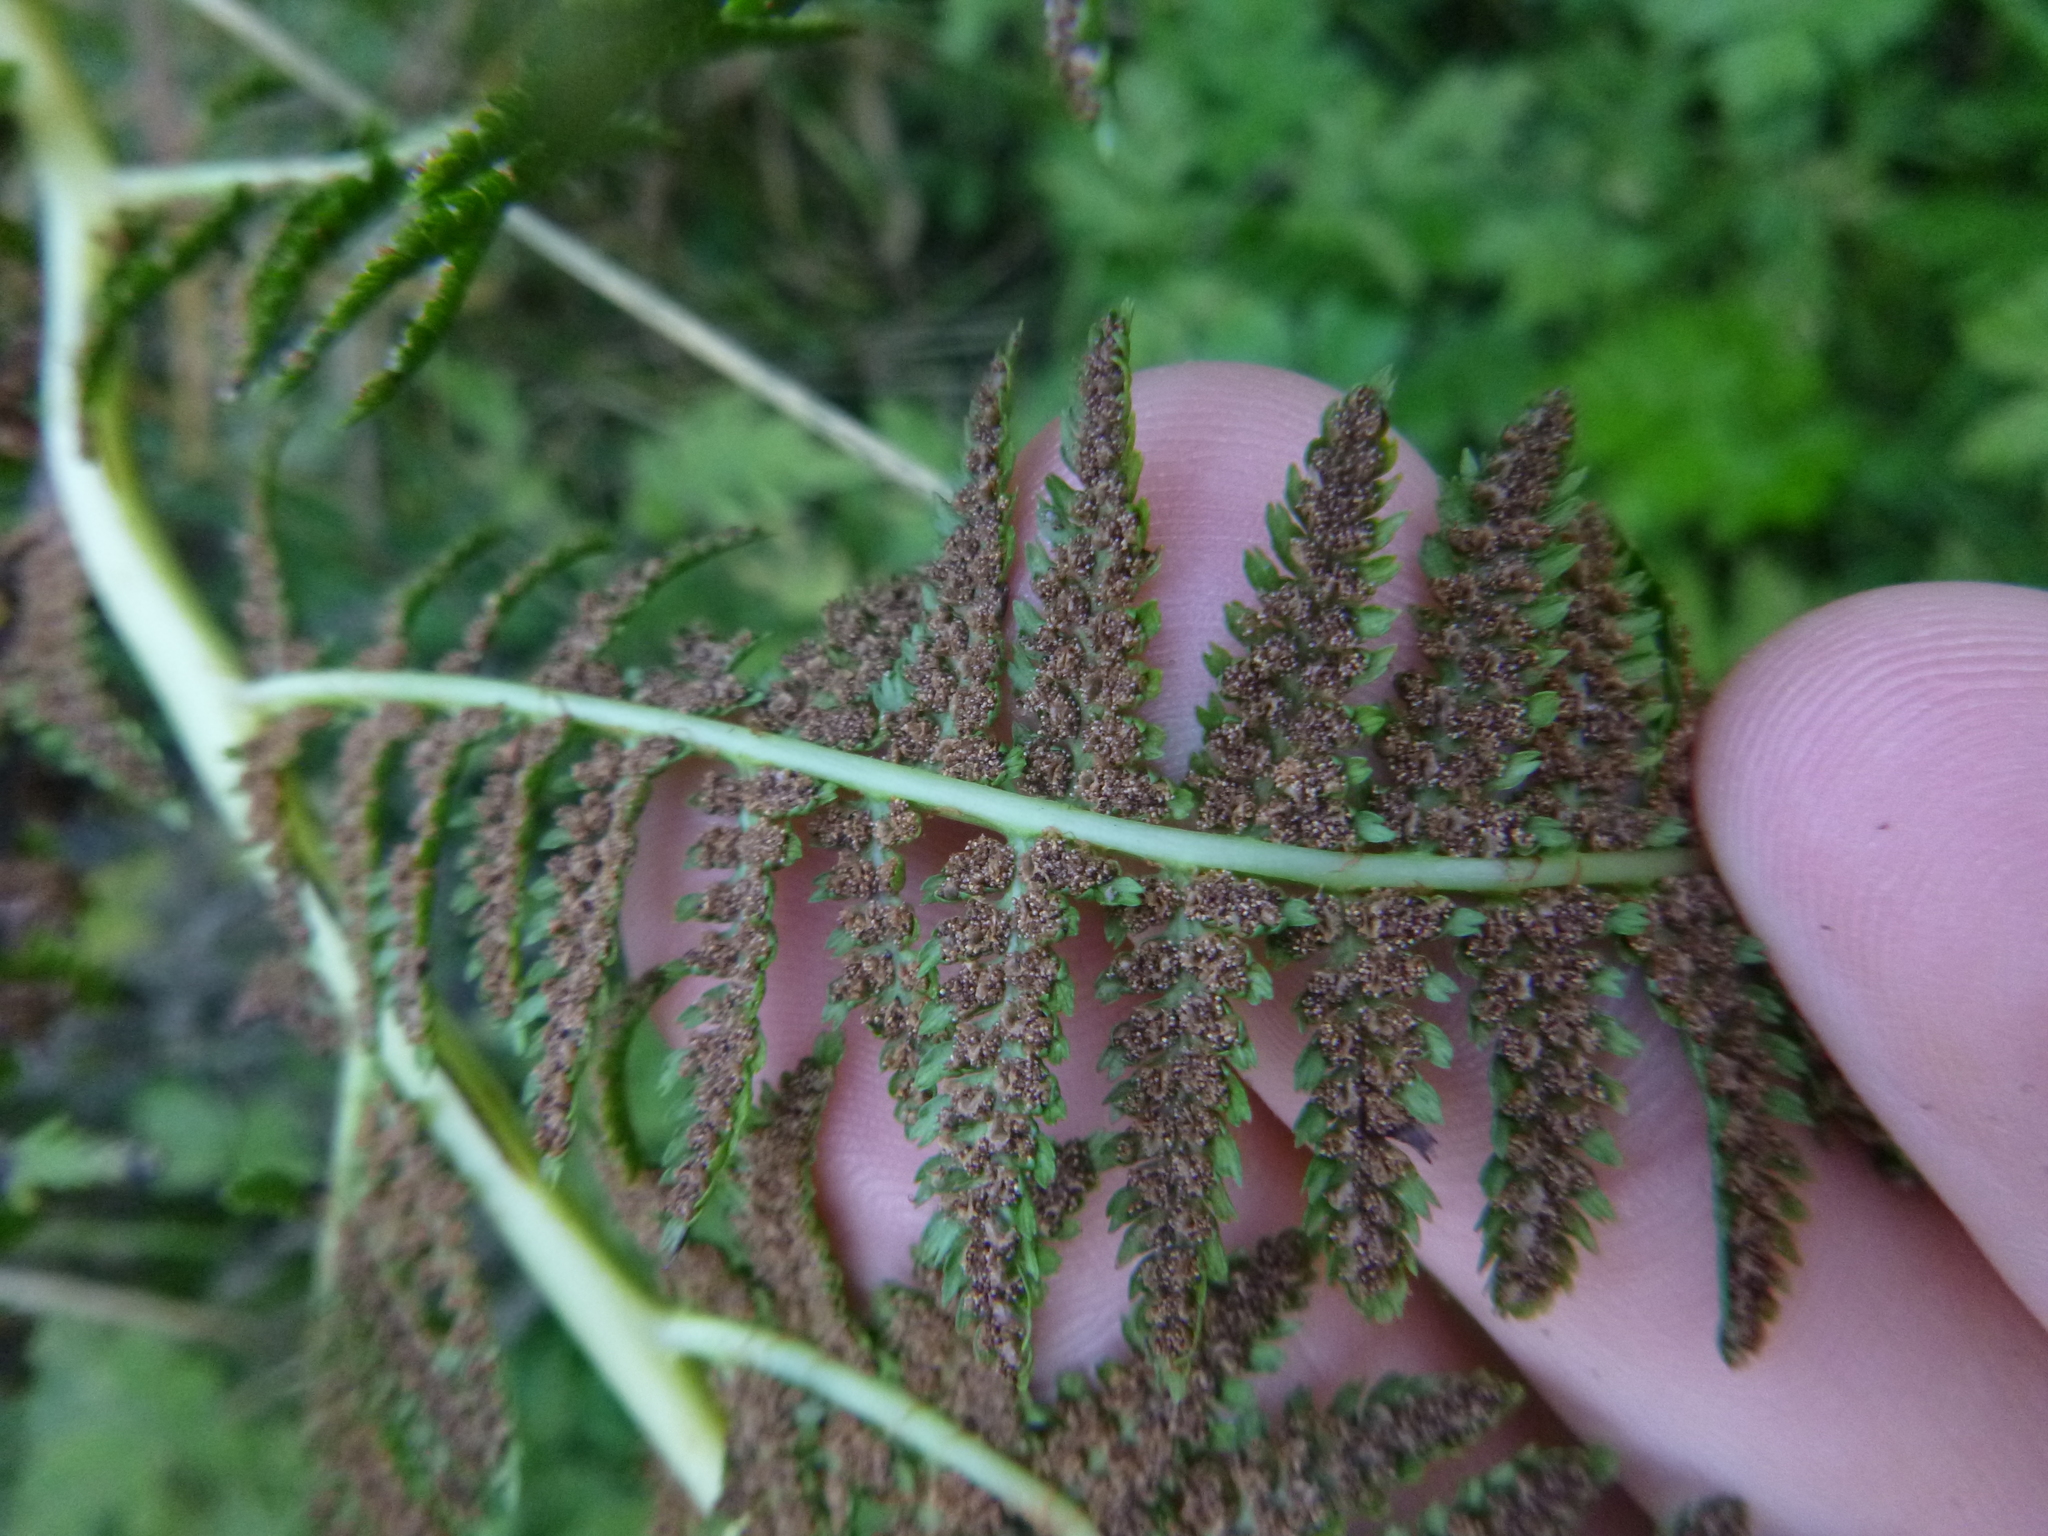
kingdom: Plantae
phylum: Tracheophyta
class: Polypodiopsida
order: Polypodiales
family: Athyriaceae
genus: Athyrium
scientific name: Athyrium filix-femina
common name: Lady fern
